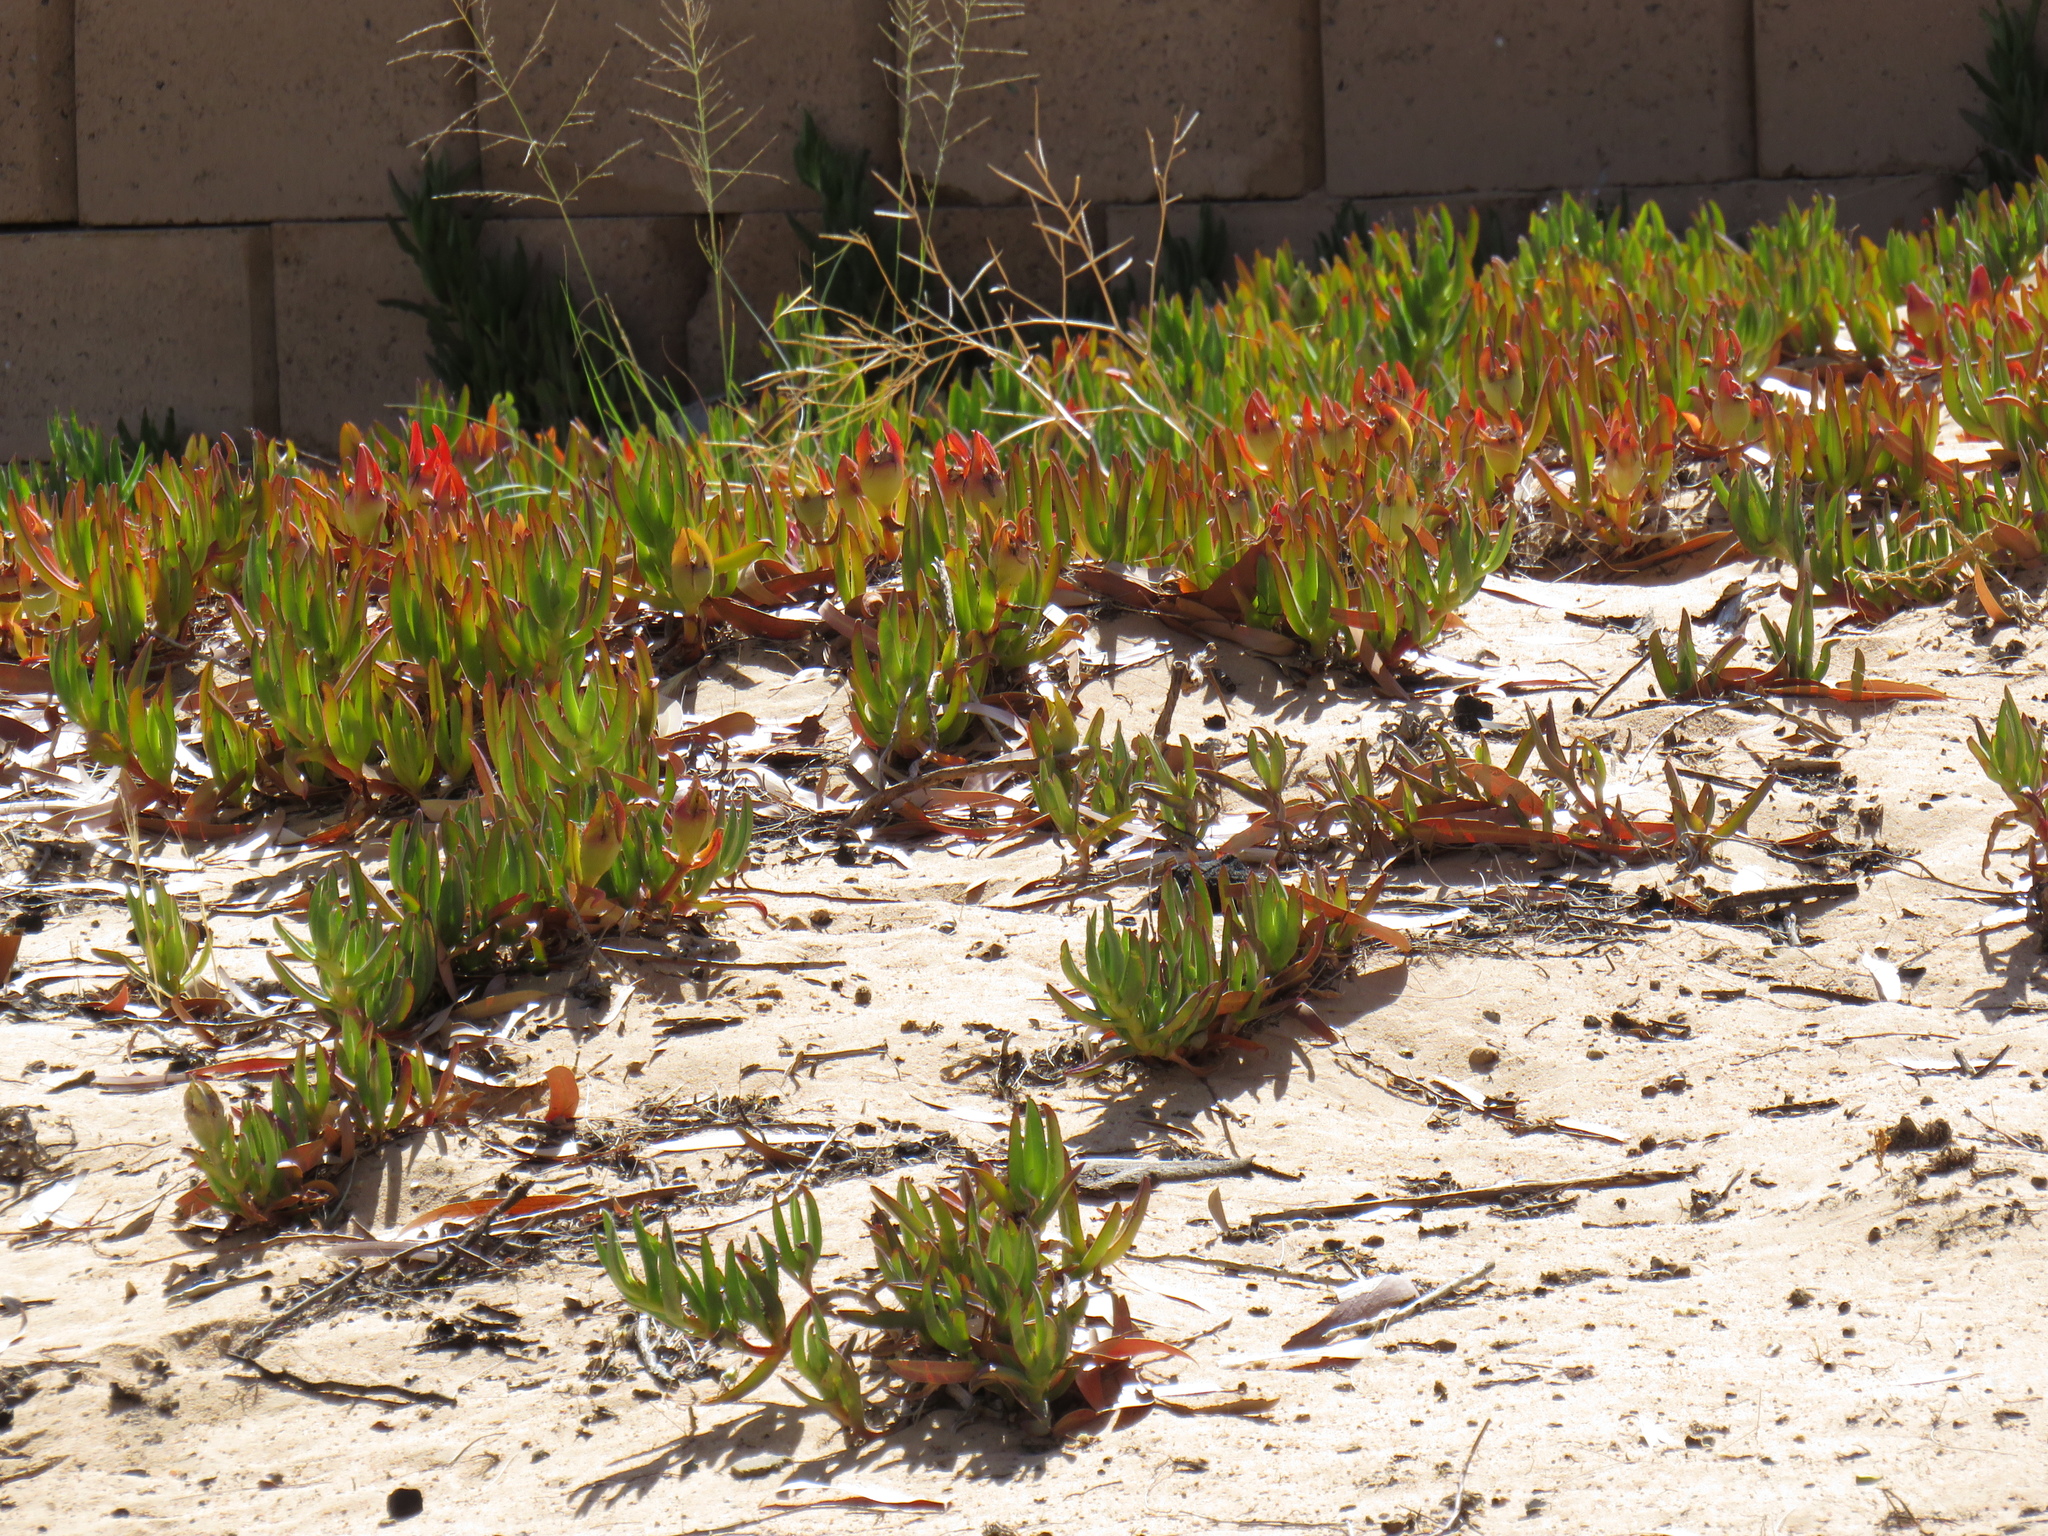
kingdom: Plantae
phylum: Tracheophyta
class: Magnoliopsida
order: Caryophyllales
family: Aizoaceae
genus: Carpobrotus
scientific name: Carpobrotus edulis
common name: Hottentot-fig
